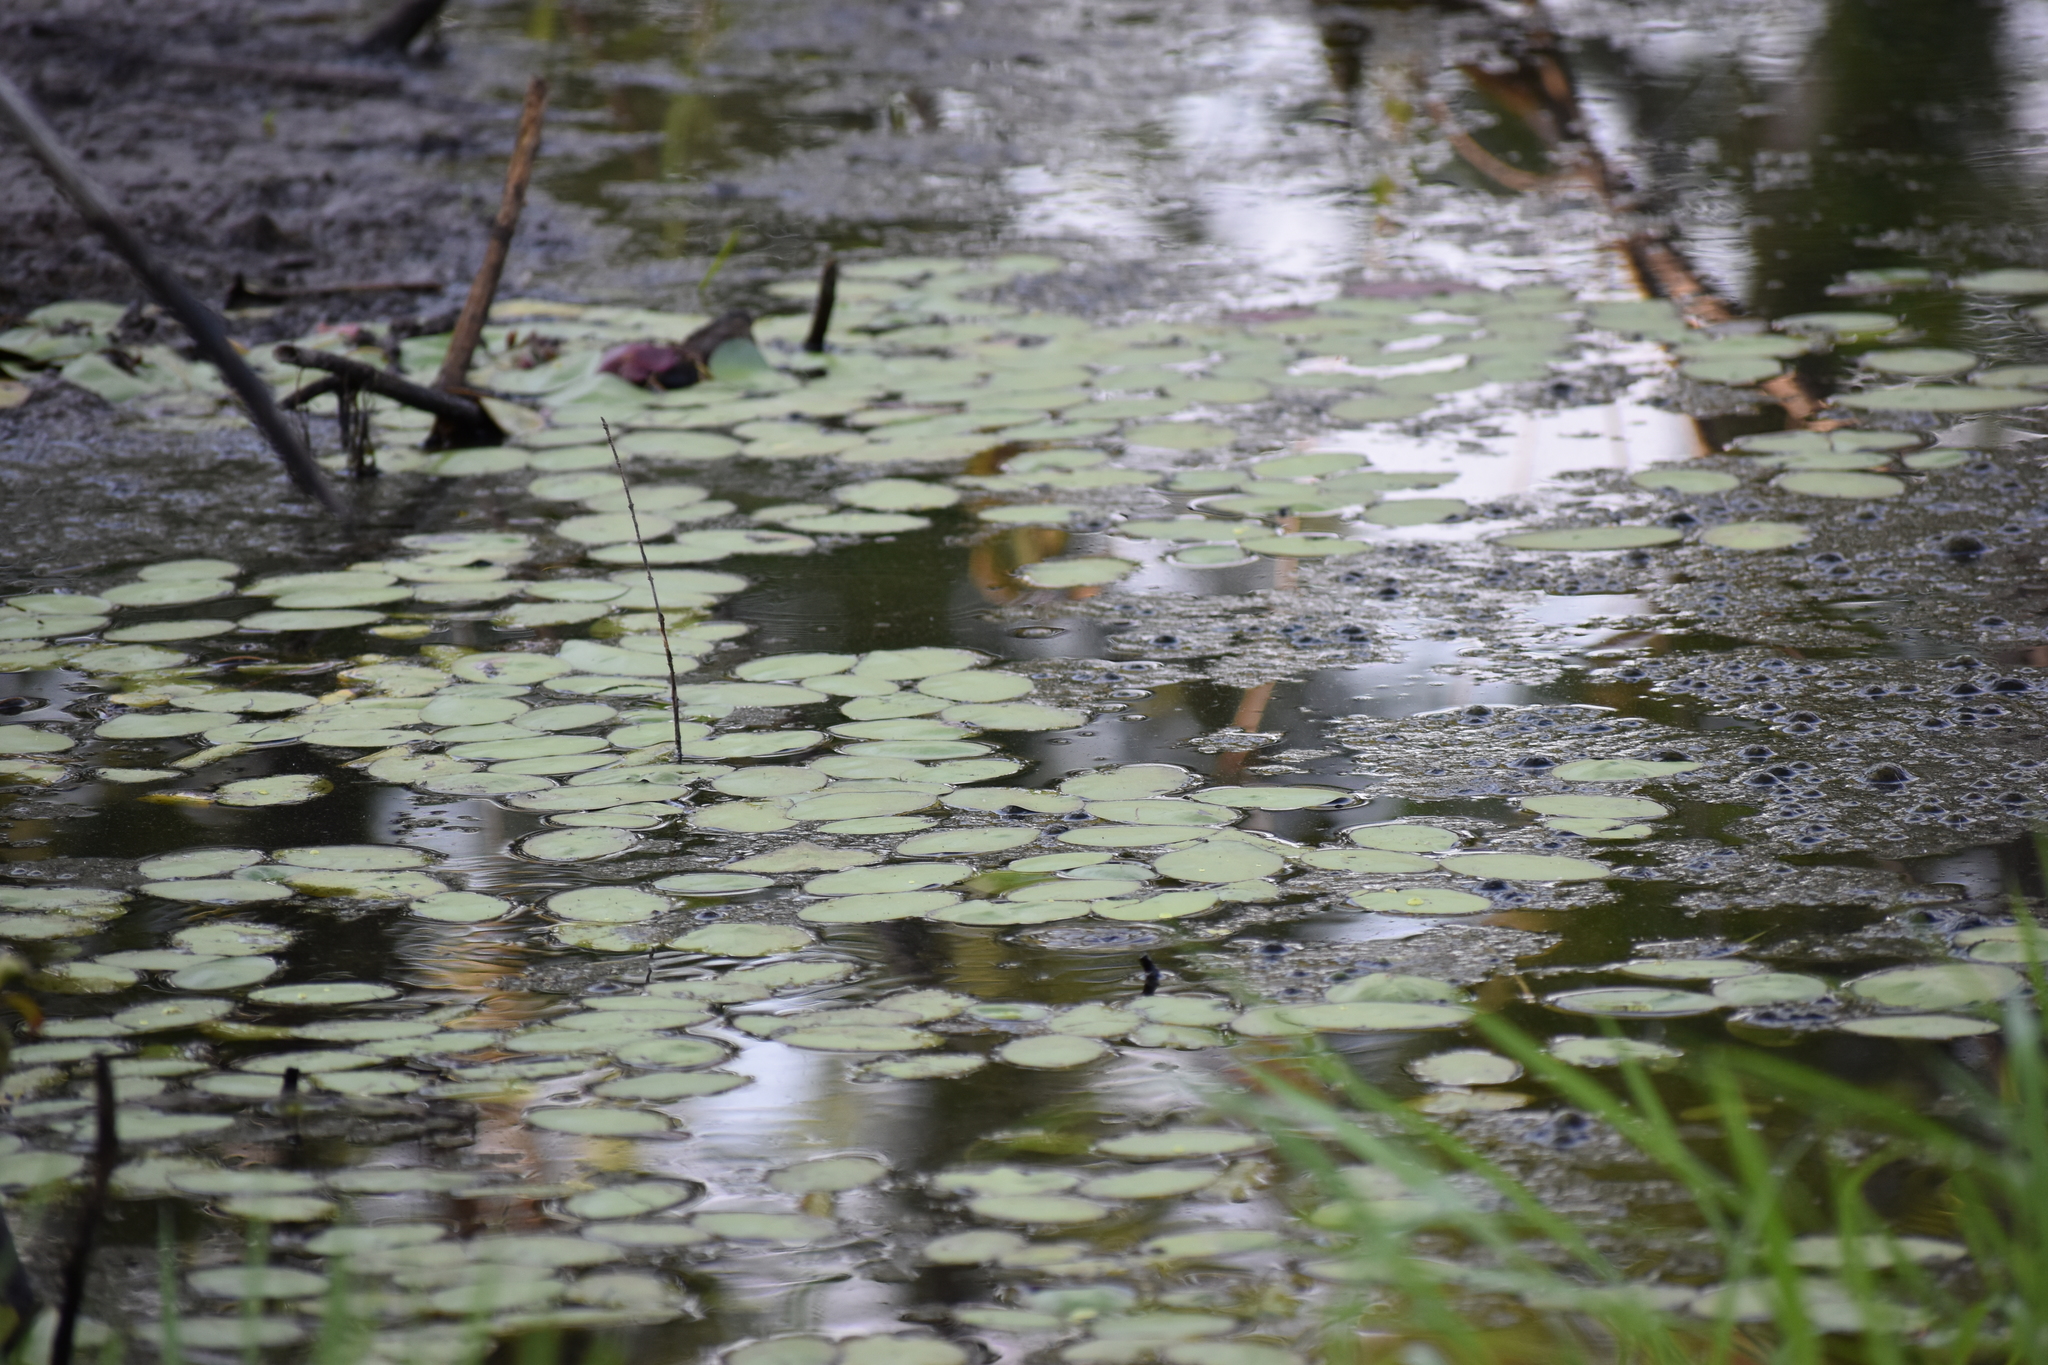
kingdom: Plantae
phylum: Tracheophyta
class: Magnoliopsida
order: Nymphaeales
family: Cabombaceae
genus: Brasenia
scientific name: Brasenia schreberi
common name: Water-shield
